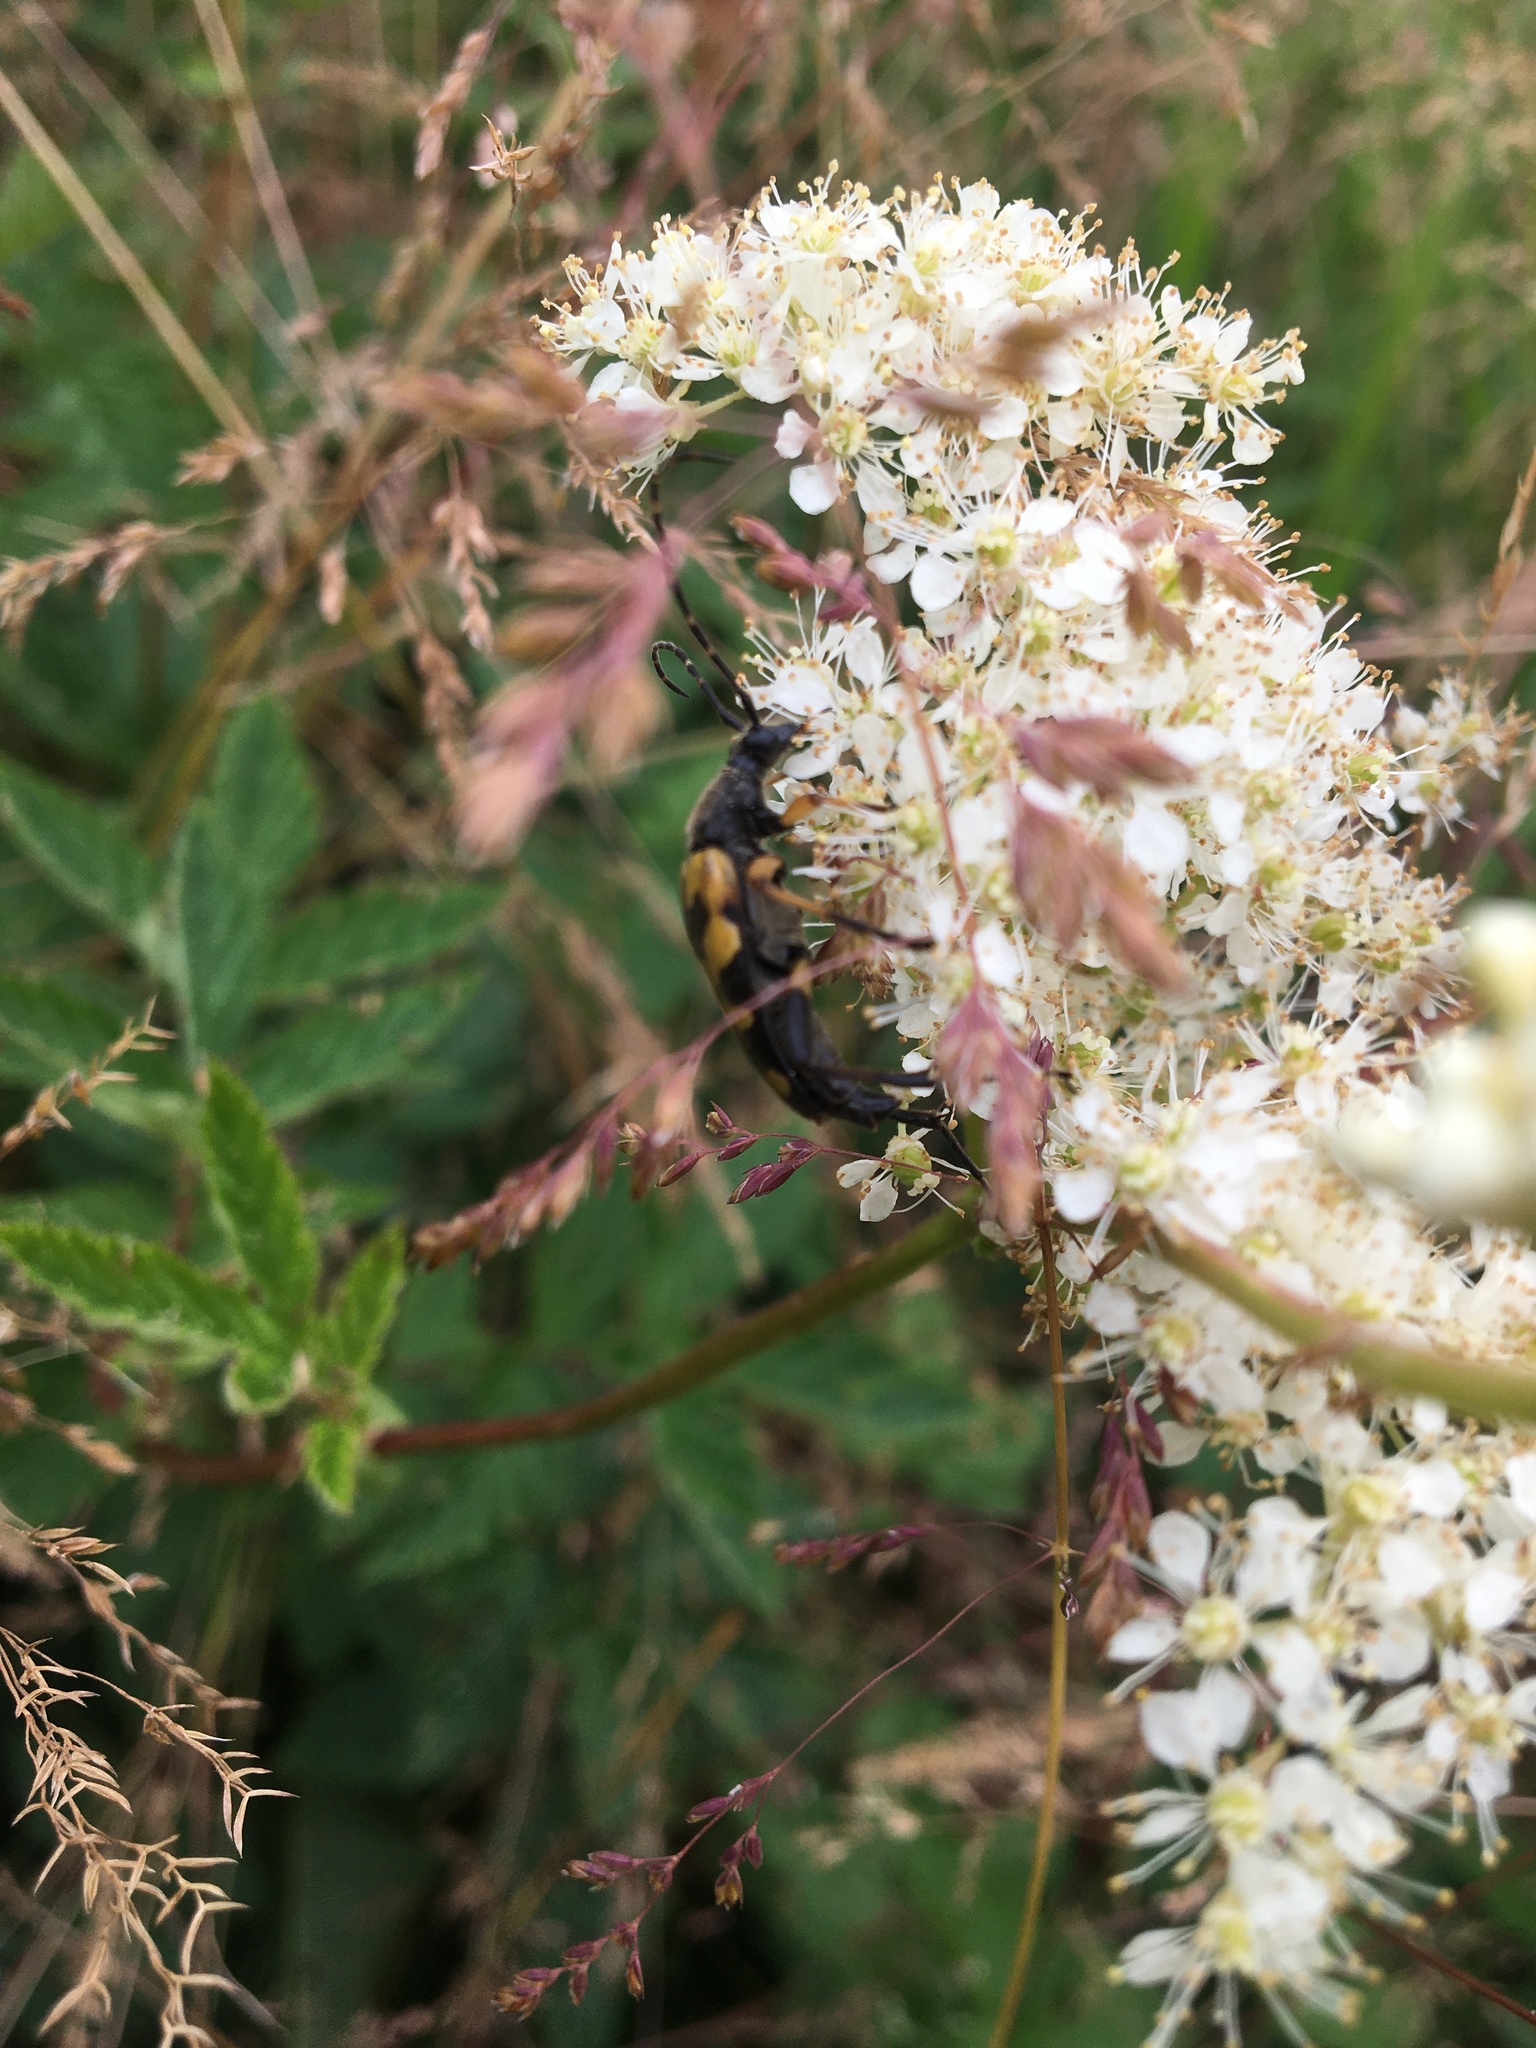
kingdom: Animalia
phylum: Arthropoda
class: Insecta
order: Coleoptera
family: Cerambycidae
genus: Rutpela
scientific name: Rutpela maculata
